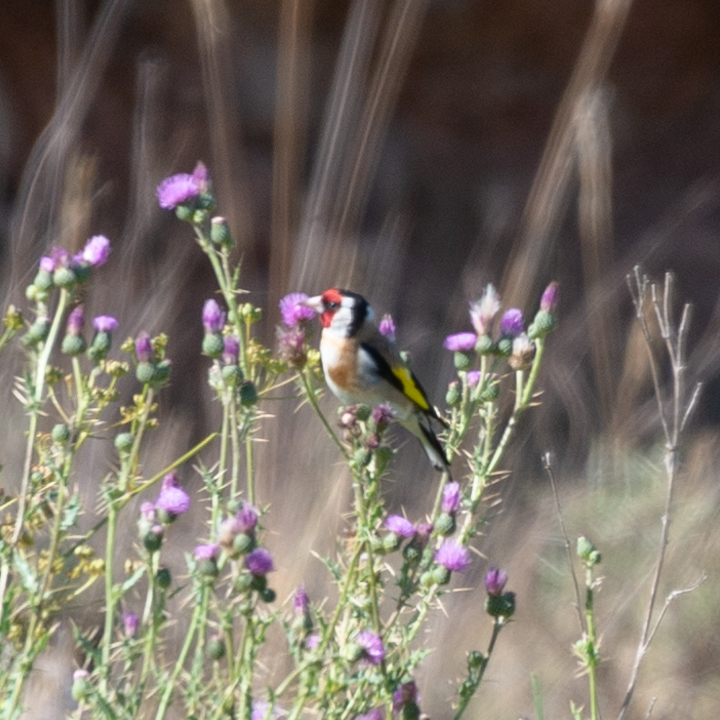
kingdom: Animalia
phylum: Chordata
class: Aves
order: Passeriformes
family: Fringillidae
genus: Carduelis
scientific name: Carduelis carduelis
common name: European goldfinch
